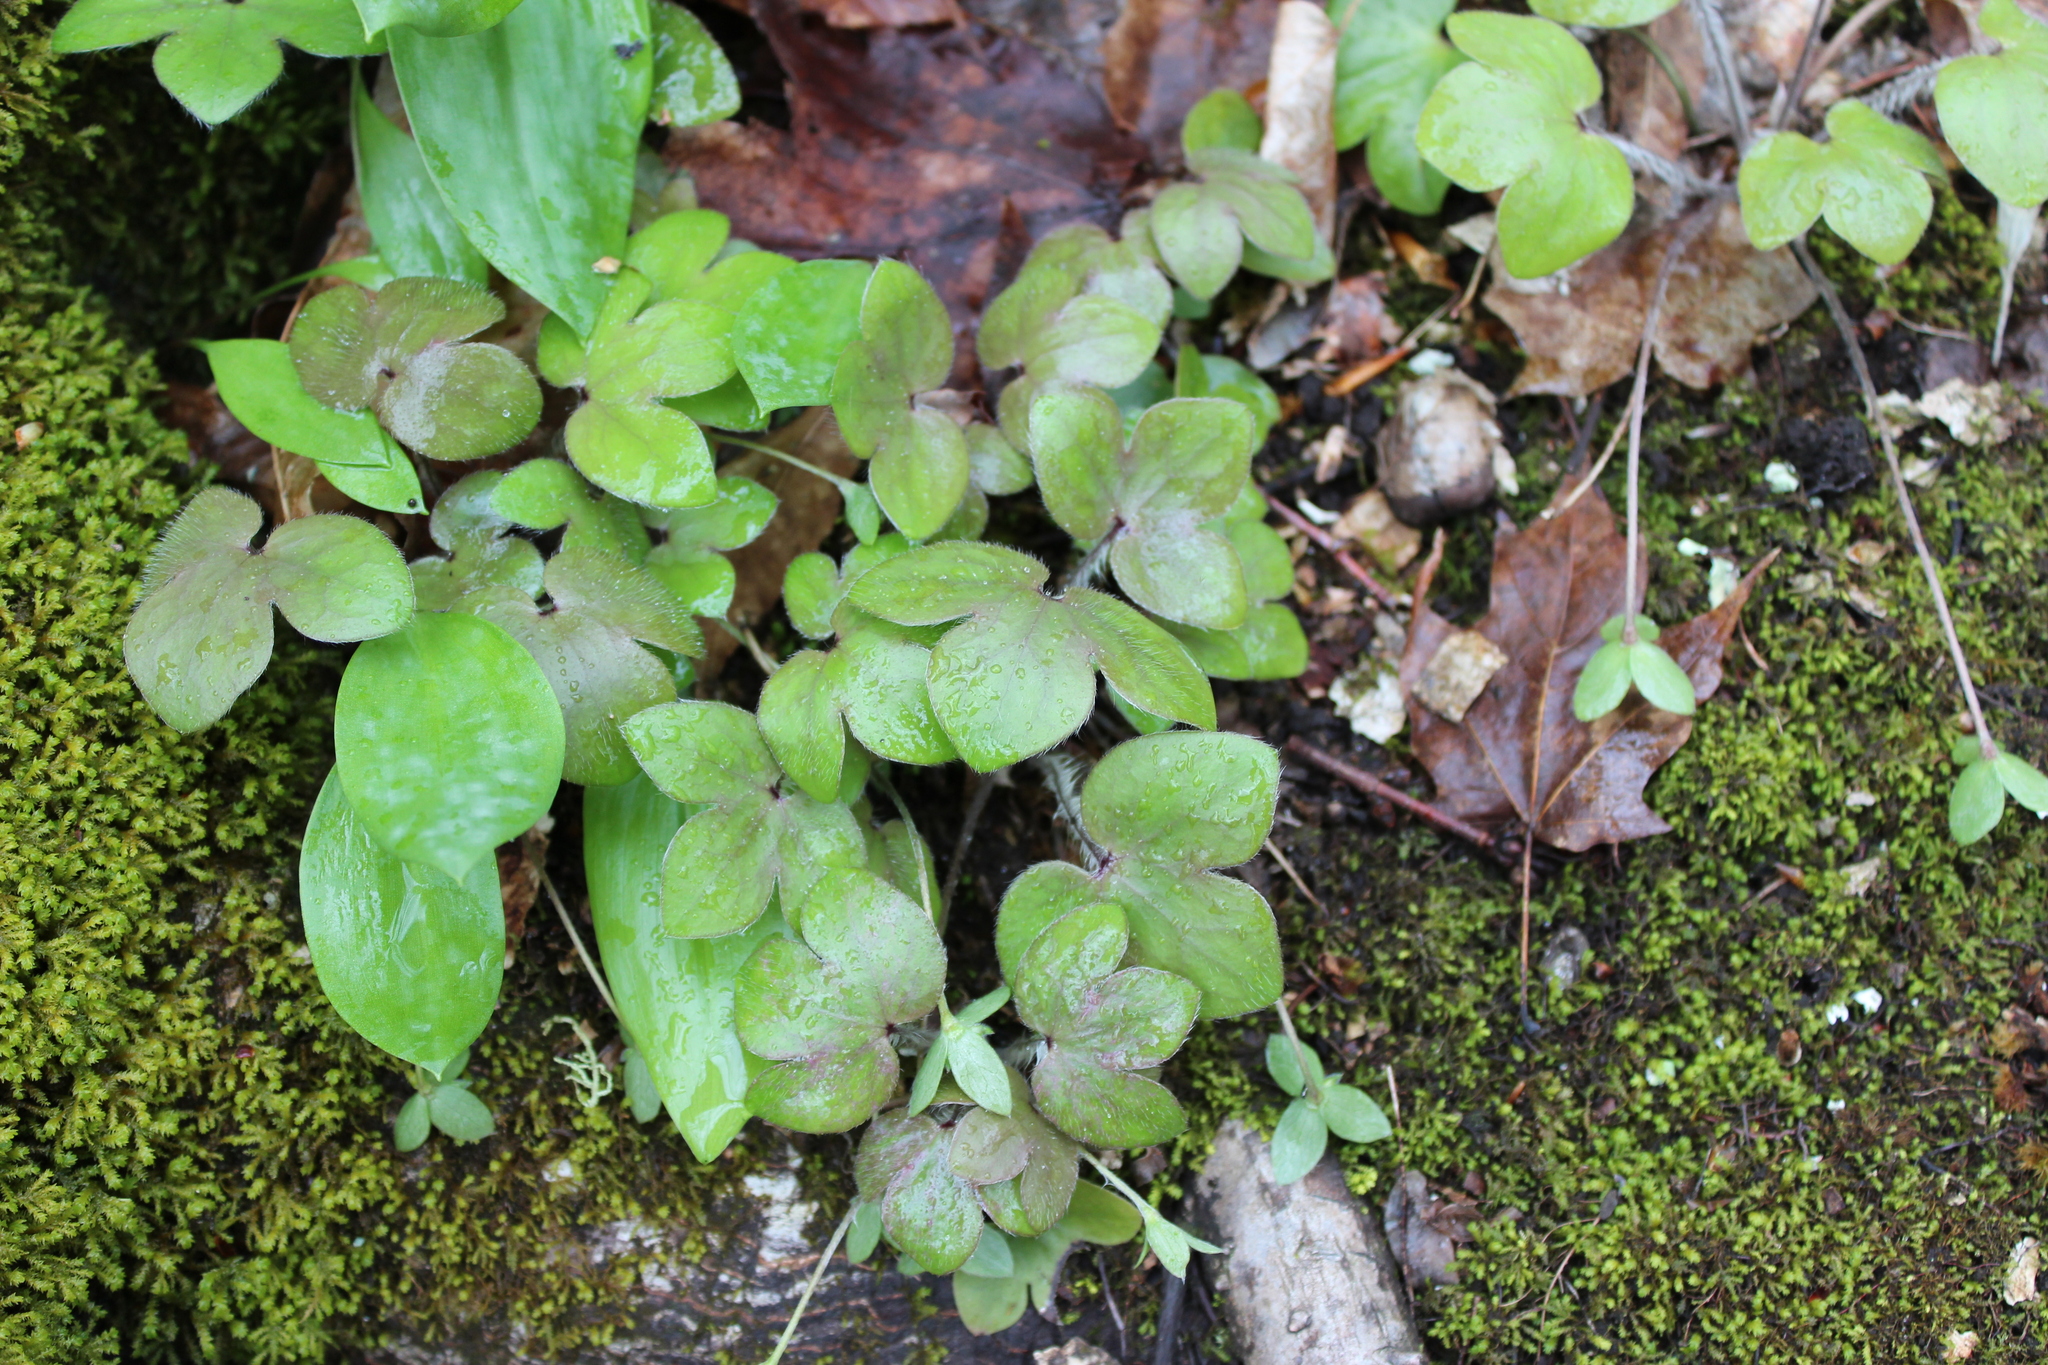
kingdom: Plantae
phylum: Tracheophyta
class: Magnoliopsida
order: Ranunculales
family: Ranunculaceae
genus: Hepatica
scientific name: Hepatica americana
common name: American hepatica
